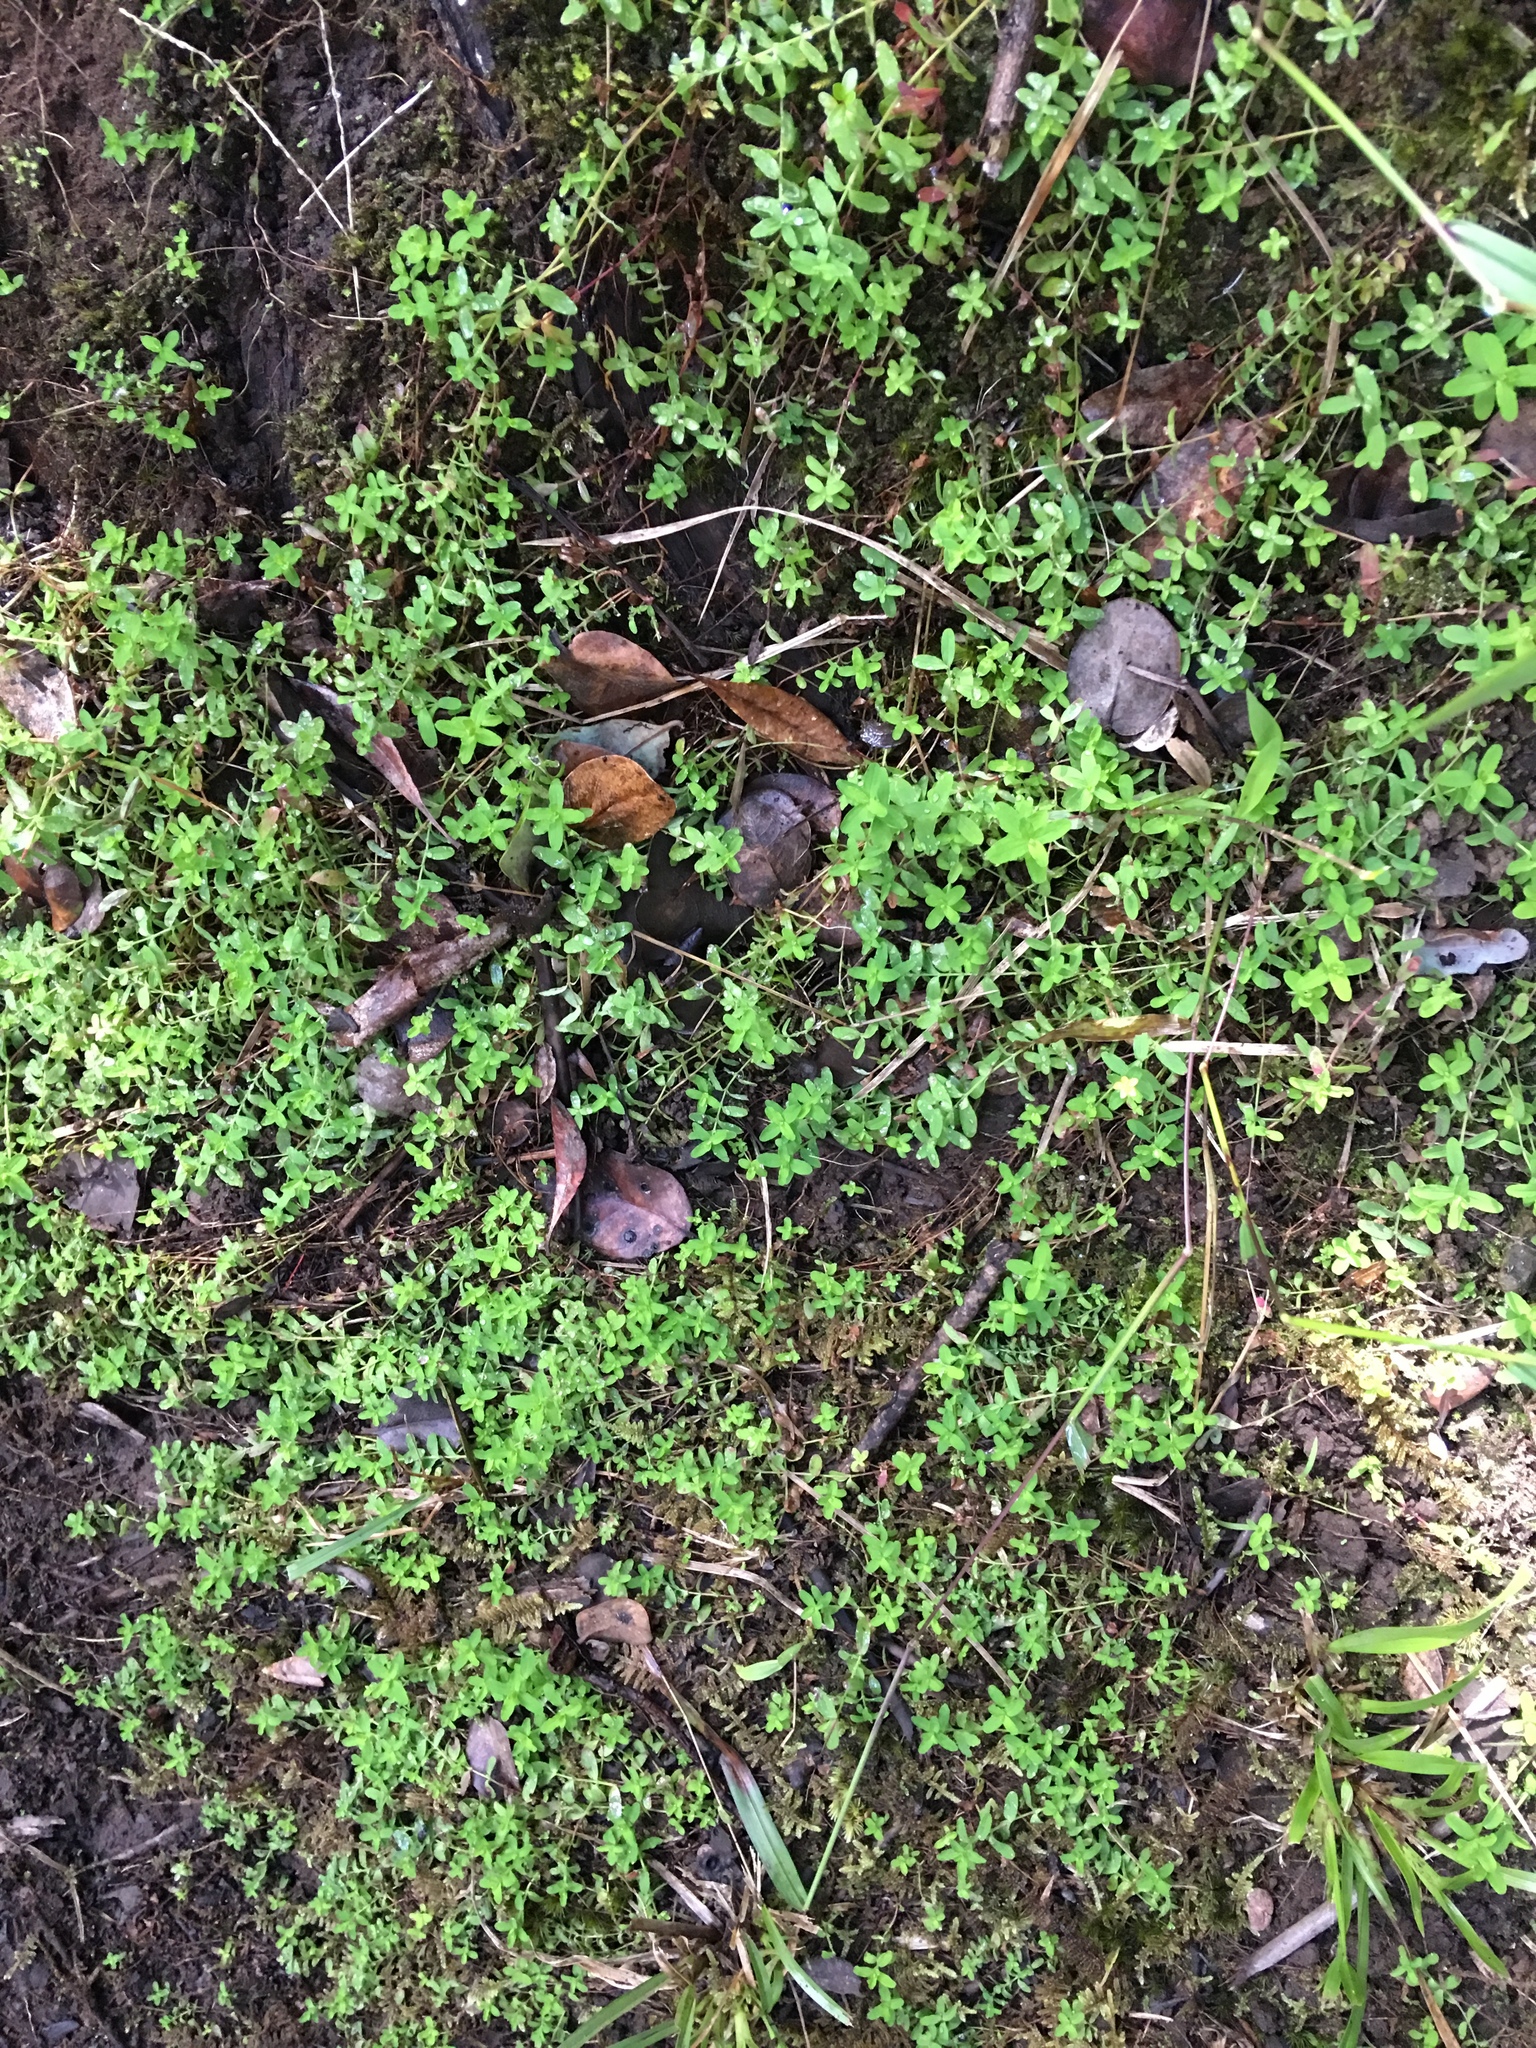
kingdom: Plantae
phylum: Tracheophyta
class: Magnoliopsida
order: Malpighiales
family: Hypericaceae
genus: Hypericum
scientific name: Hypericum parvulum
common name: Sierra madre st. johnswort
